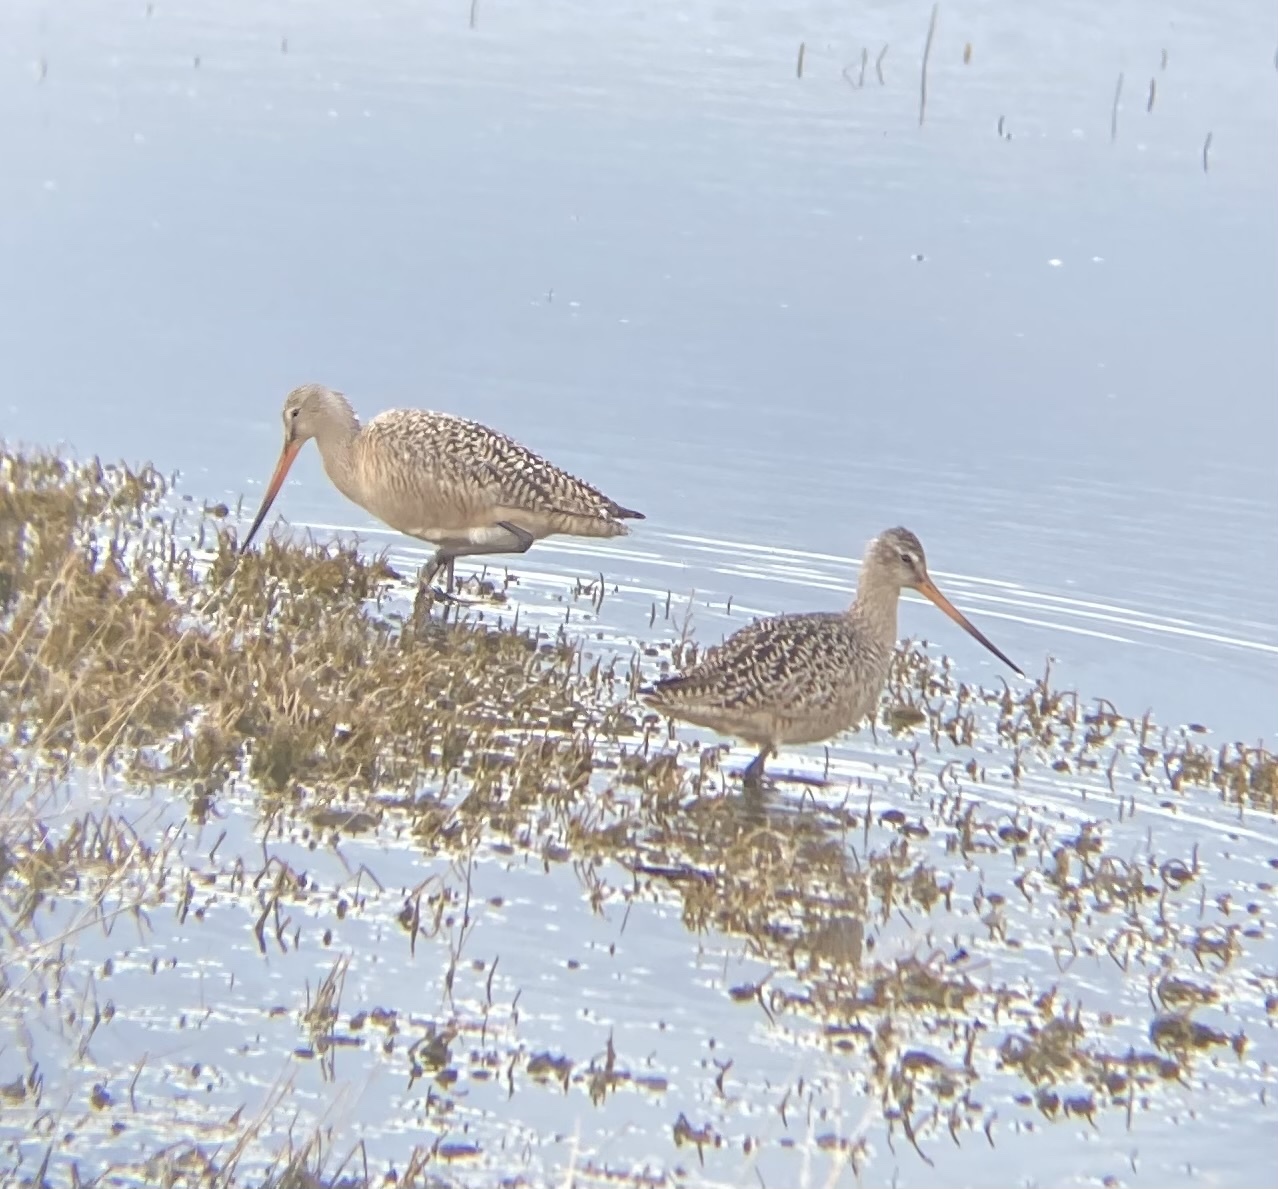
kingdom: Animalia
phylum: Chordata
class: Aves
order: Charadriiformes
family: Scolopacidae
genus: Limosa
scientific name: Limosa fedoa
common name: Marbled godwit
